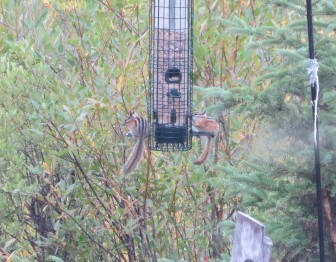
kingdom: Animalia
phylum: Chordata
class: Mammalia
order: Rodentia
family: Sciuridae
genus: Tamias
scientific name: Tamias amoenus
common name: Yellow-pine chipmunk
